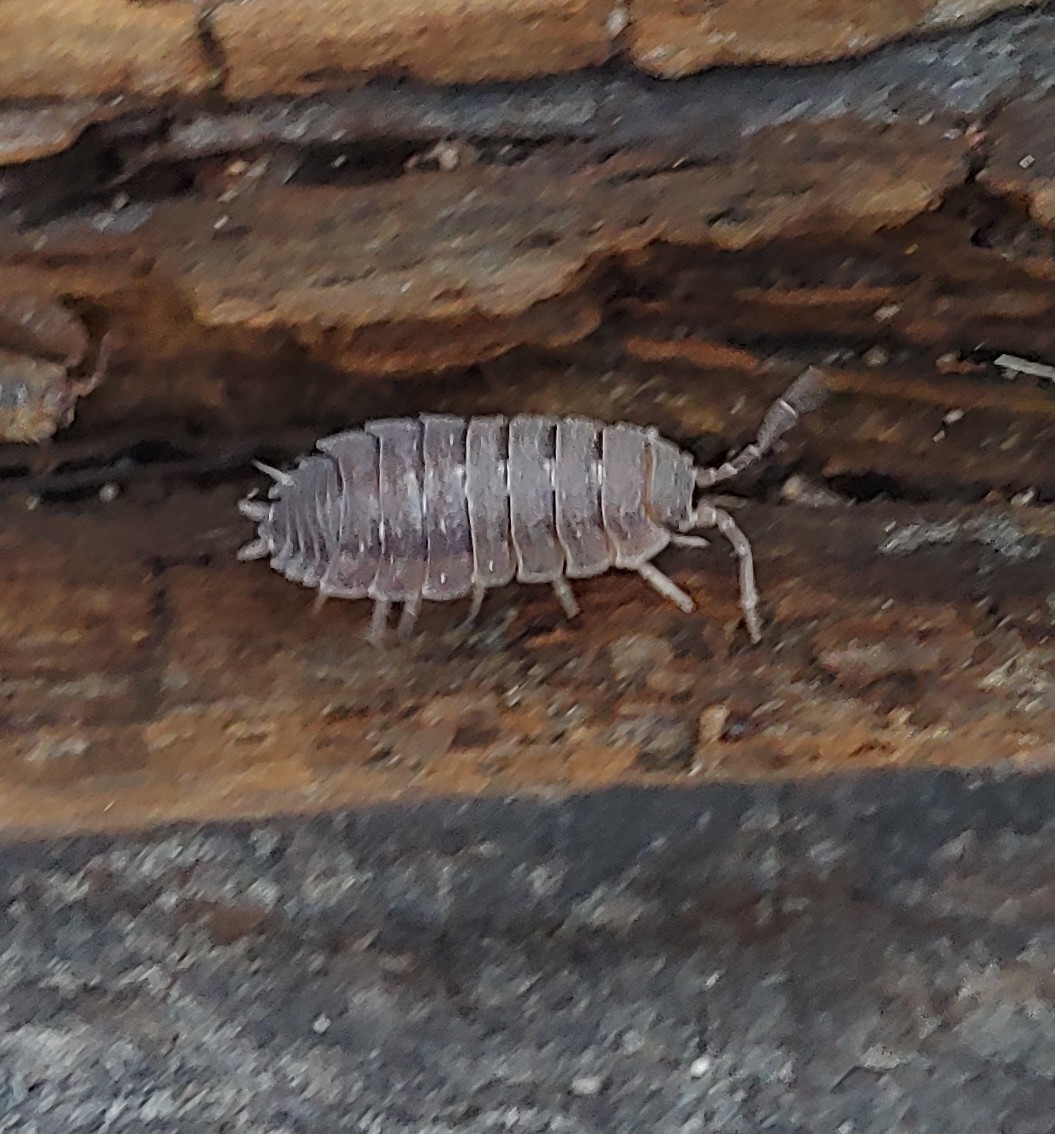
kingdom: Animalia
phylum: Arthropoda
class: Malacostraca
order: Isopoda
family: Porcellionidae
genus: Porcellio
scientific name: Porcellio scaber
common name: Common rough woodlouse
